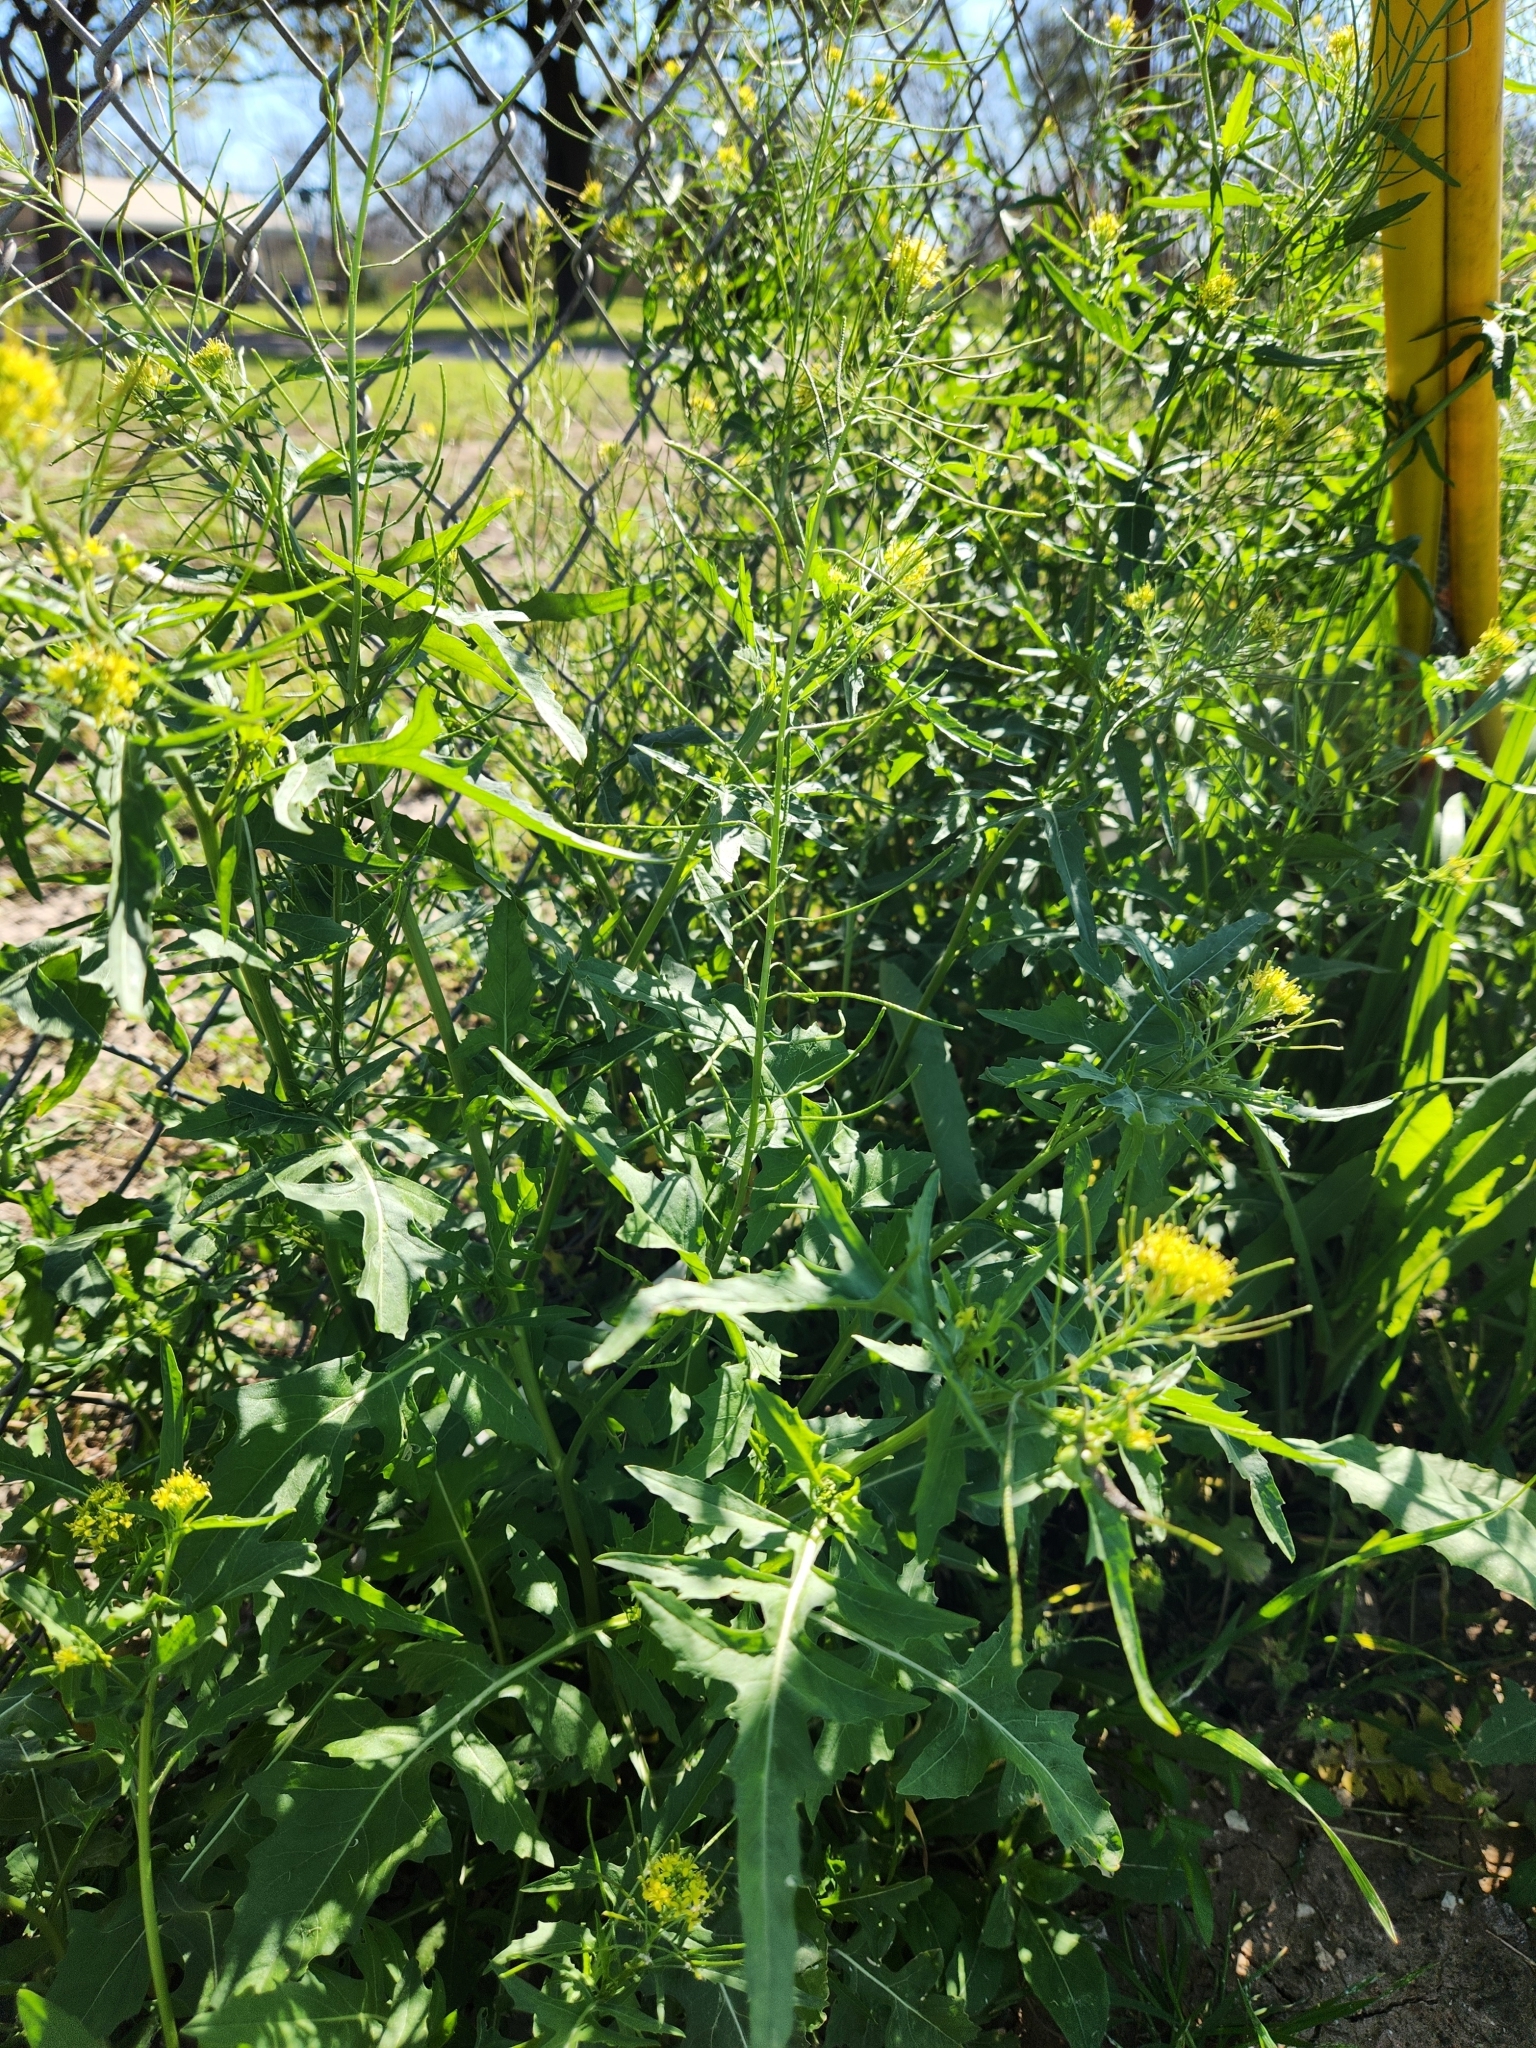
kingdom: Plantae
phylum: Tracheophyta
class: Magnoliopsida
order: Brassicales
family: Brassicaceae
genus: Sisymbrium
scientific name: Sisymbrium irio
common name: London rocket
